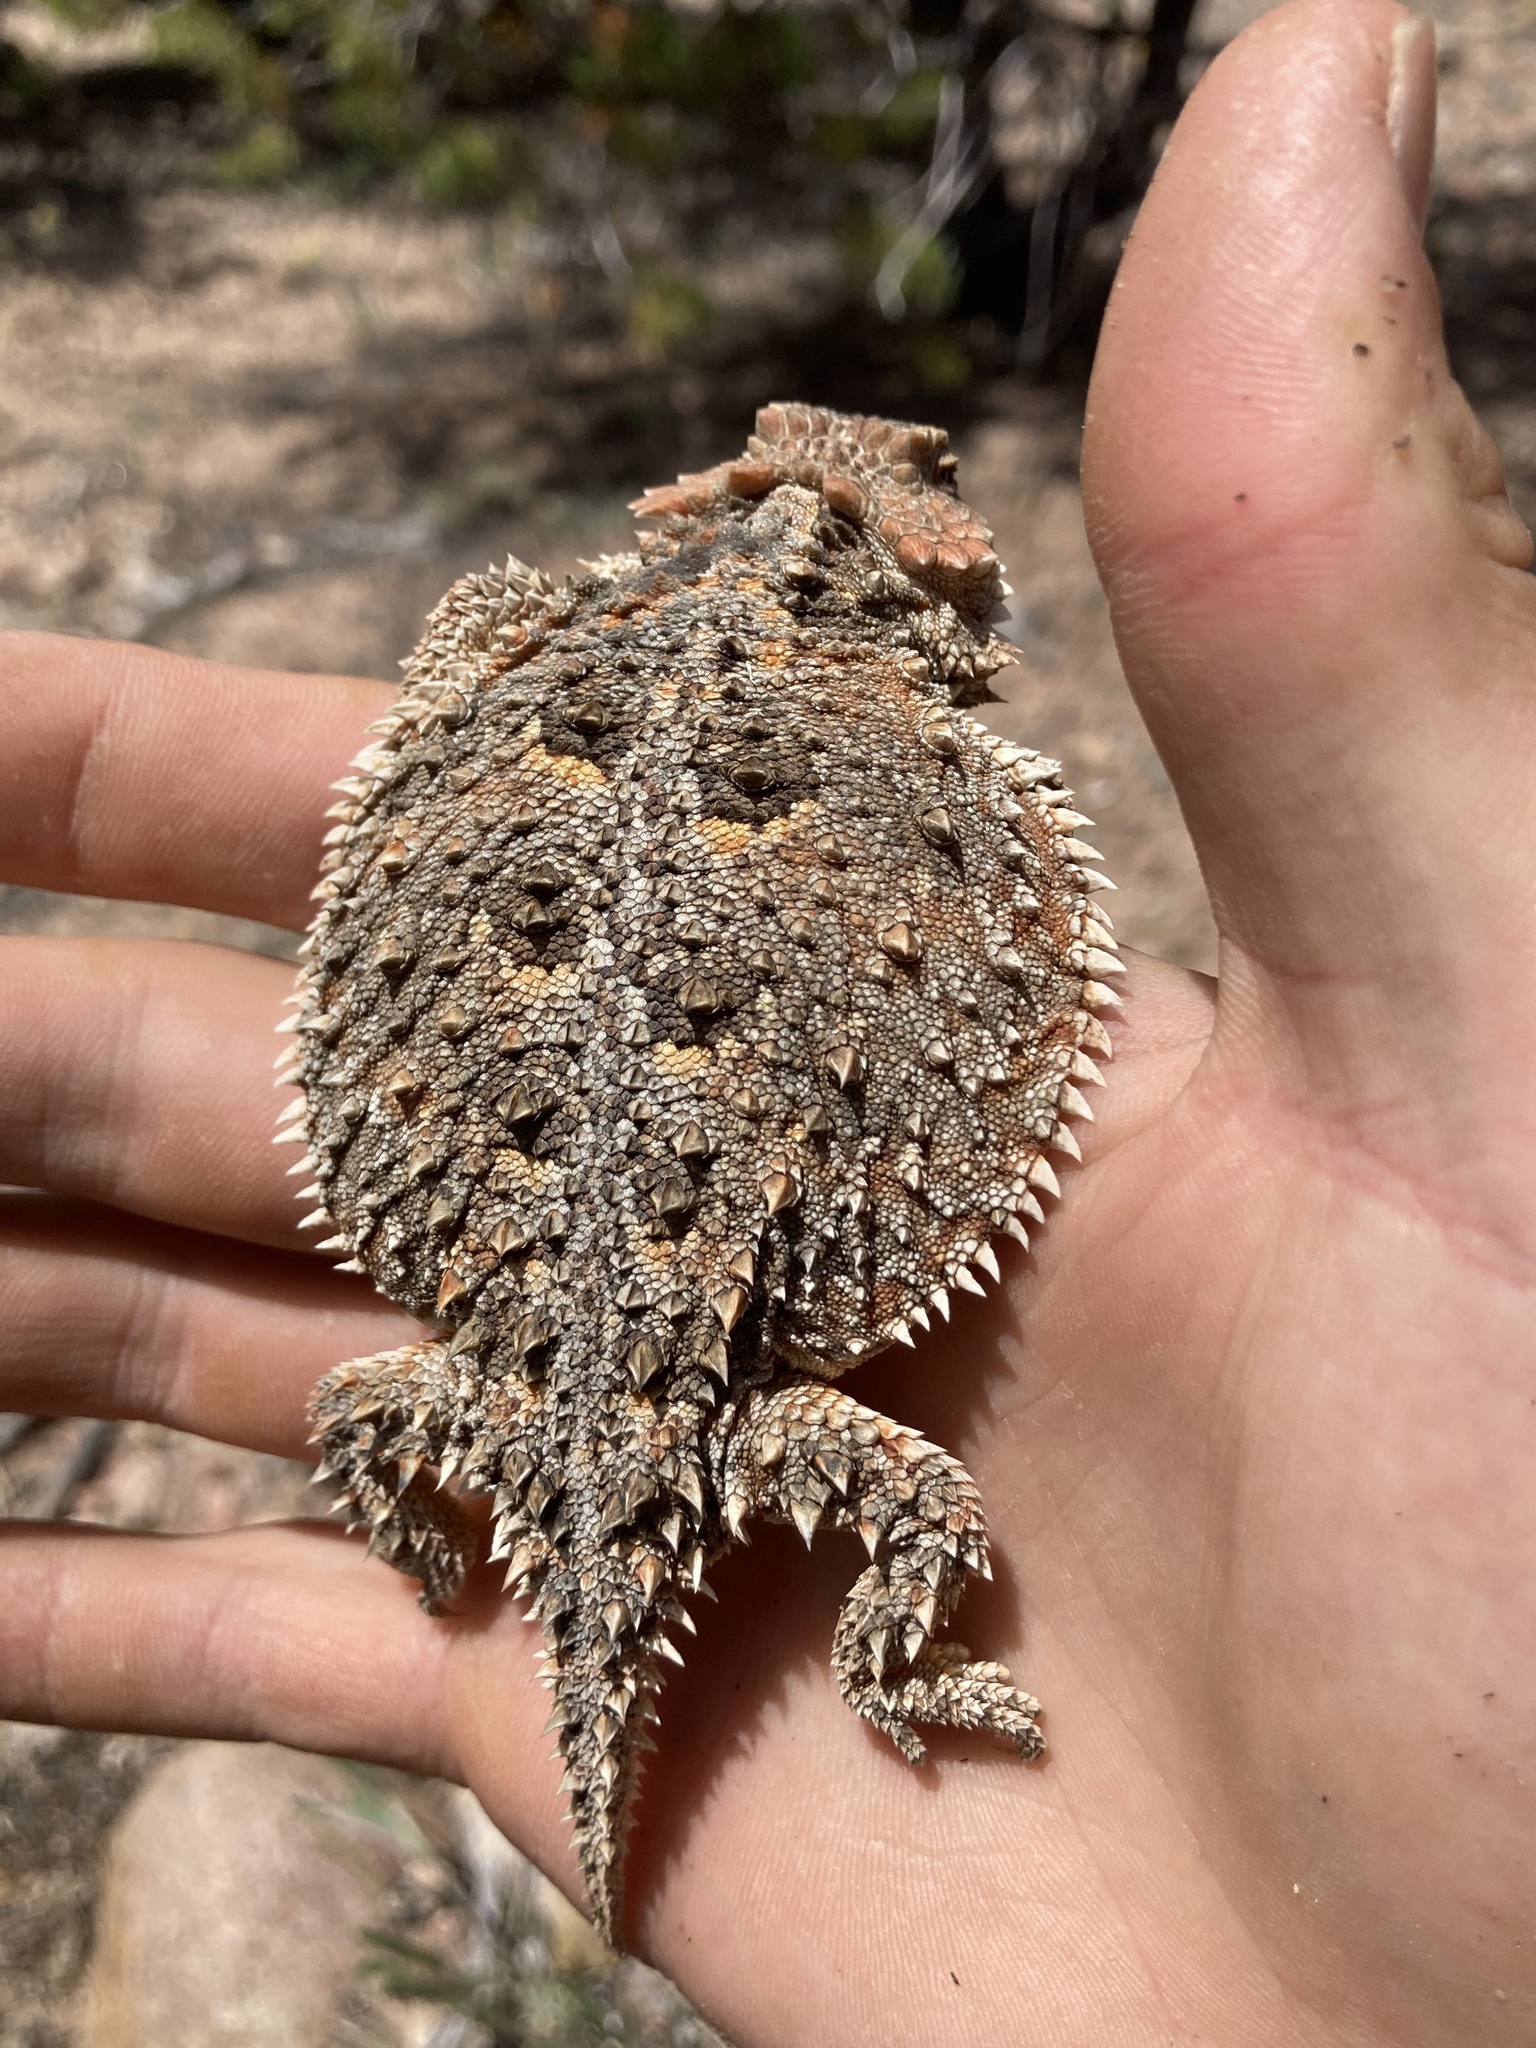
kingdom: Animalia
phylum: Chordata
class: Squamata
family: Phrynosomatidae
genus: Phrynosoma
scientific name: Phrynosoma hernandesi
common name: Greater short-horned lizard
